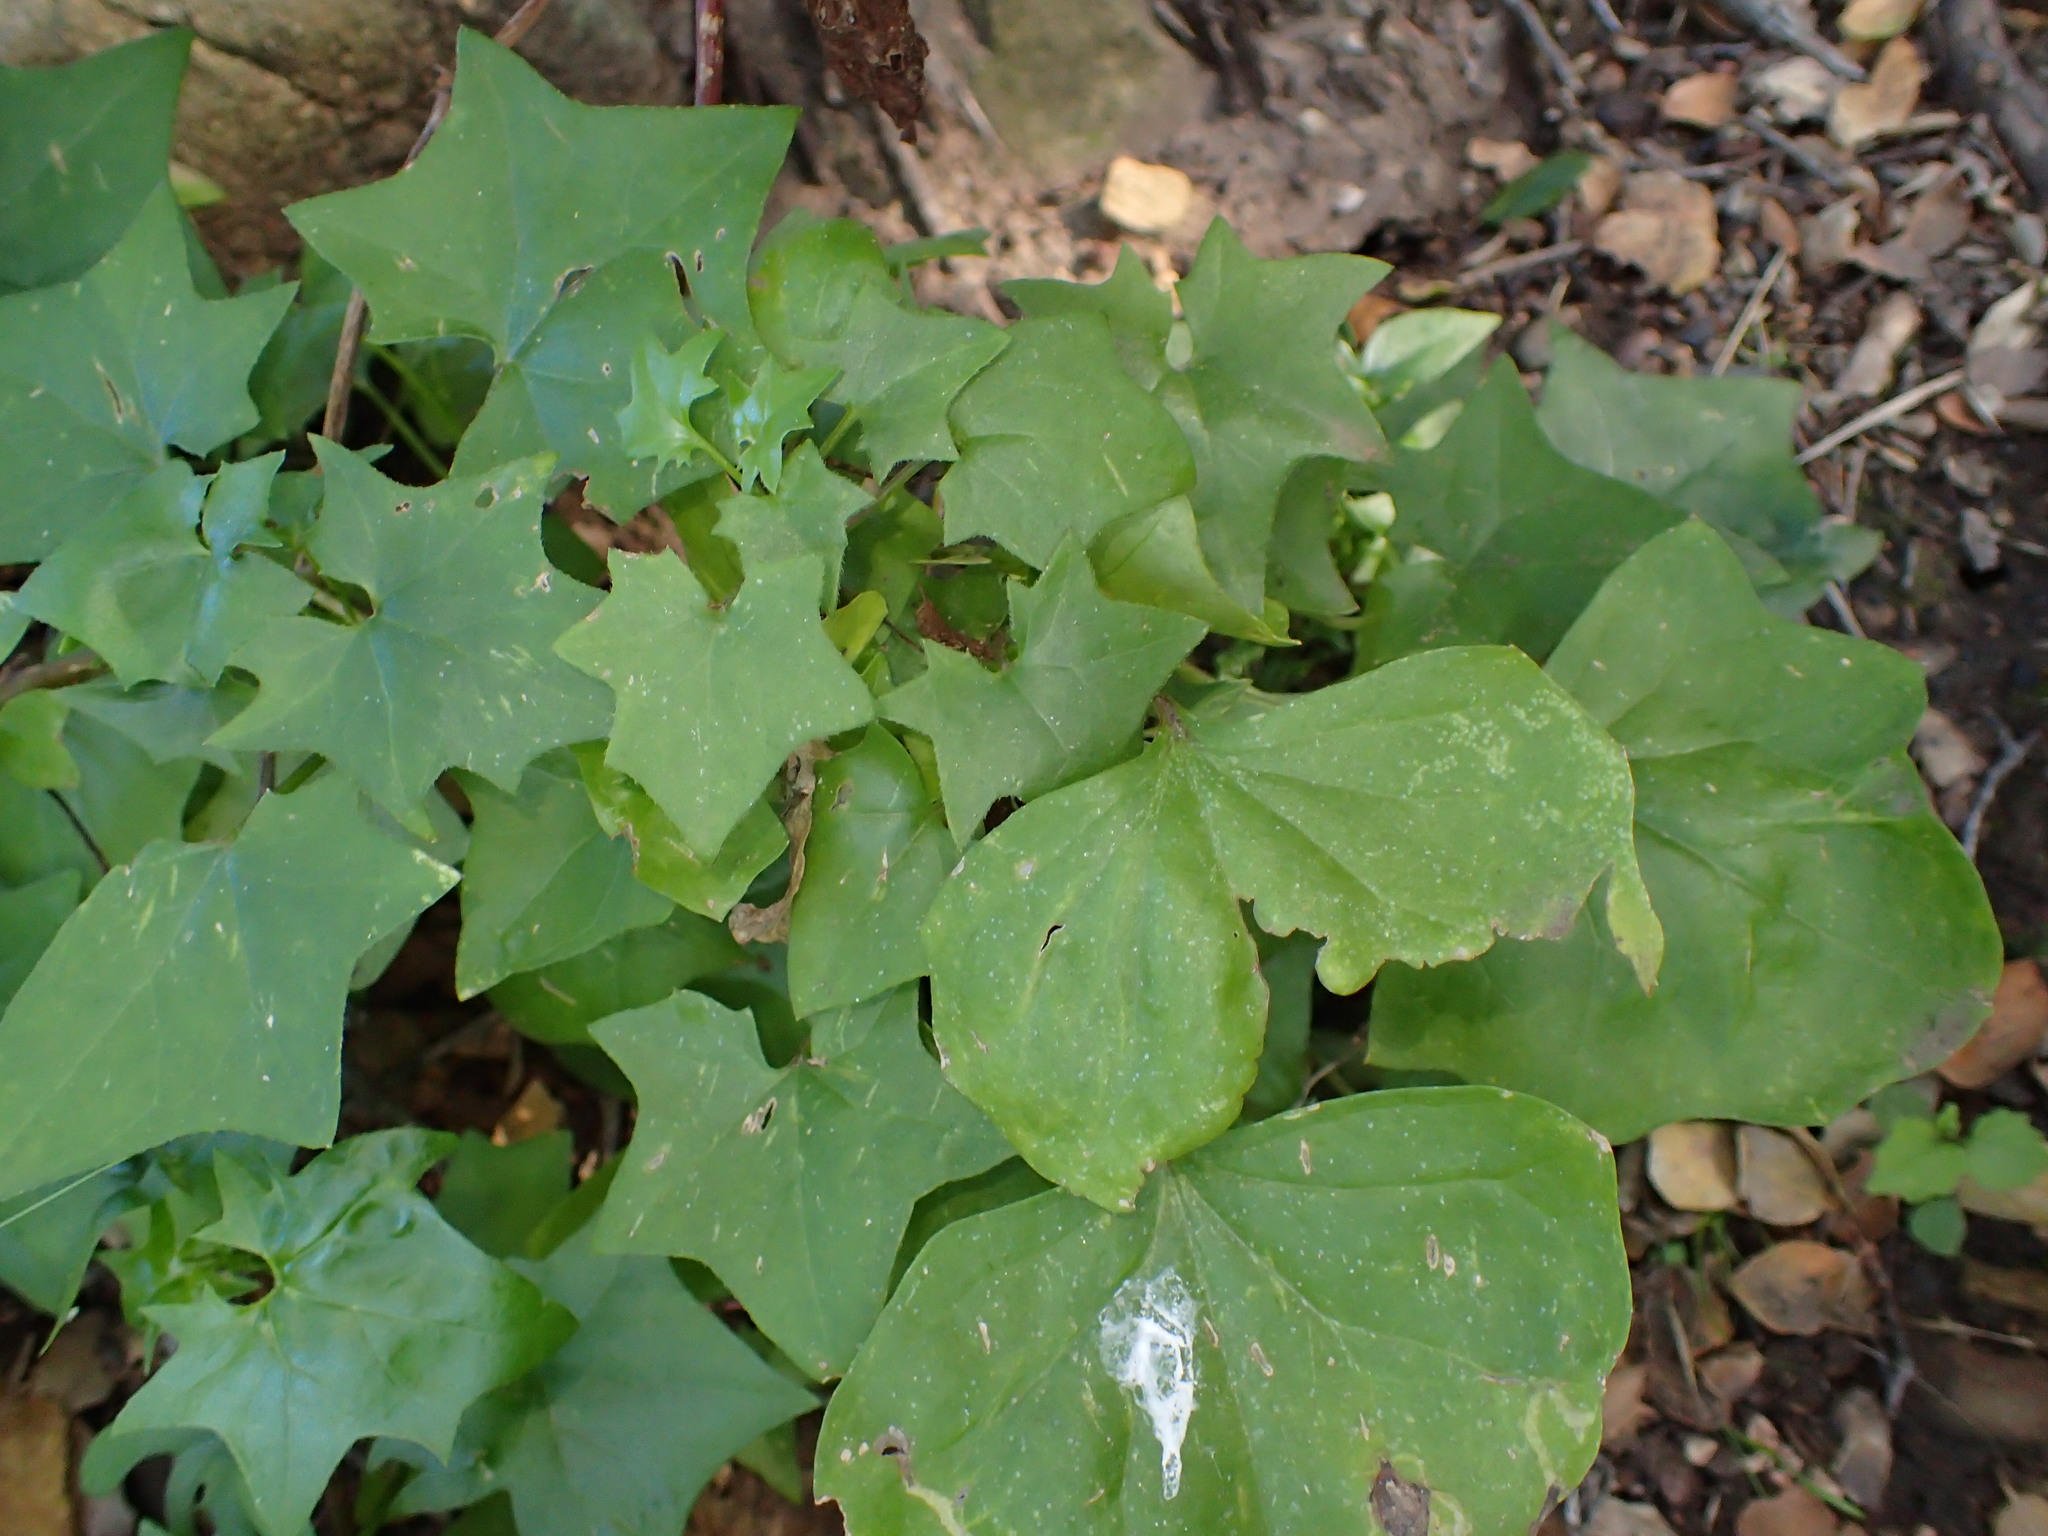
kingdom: Plantae
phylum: Tracheophyta
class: Magnoliopsida
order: Asterales
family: Asteraceae
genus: Delairea
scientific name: Delairea odorata
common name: Cape-ivy
